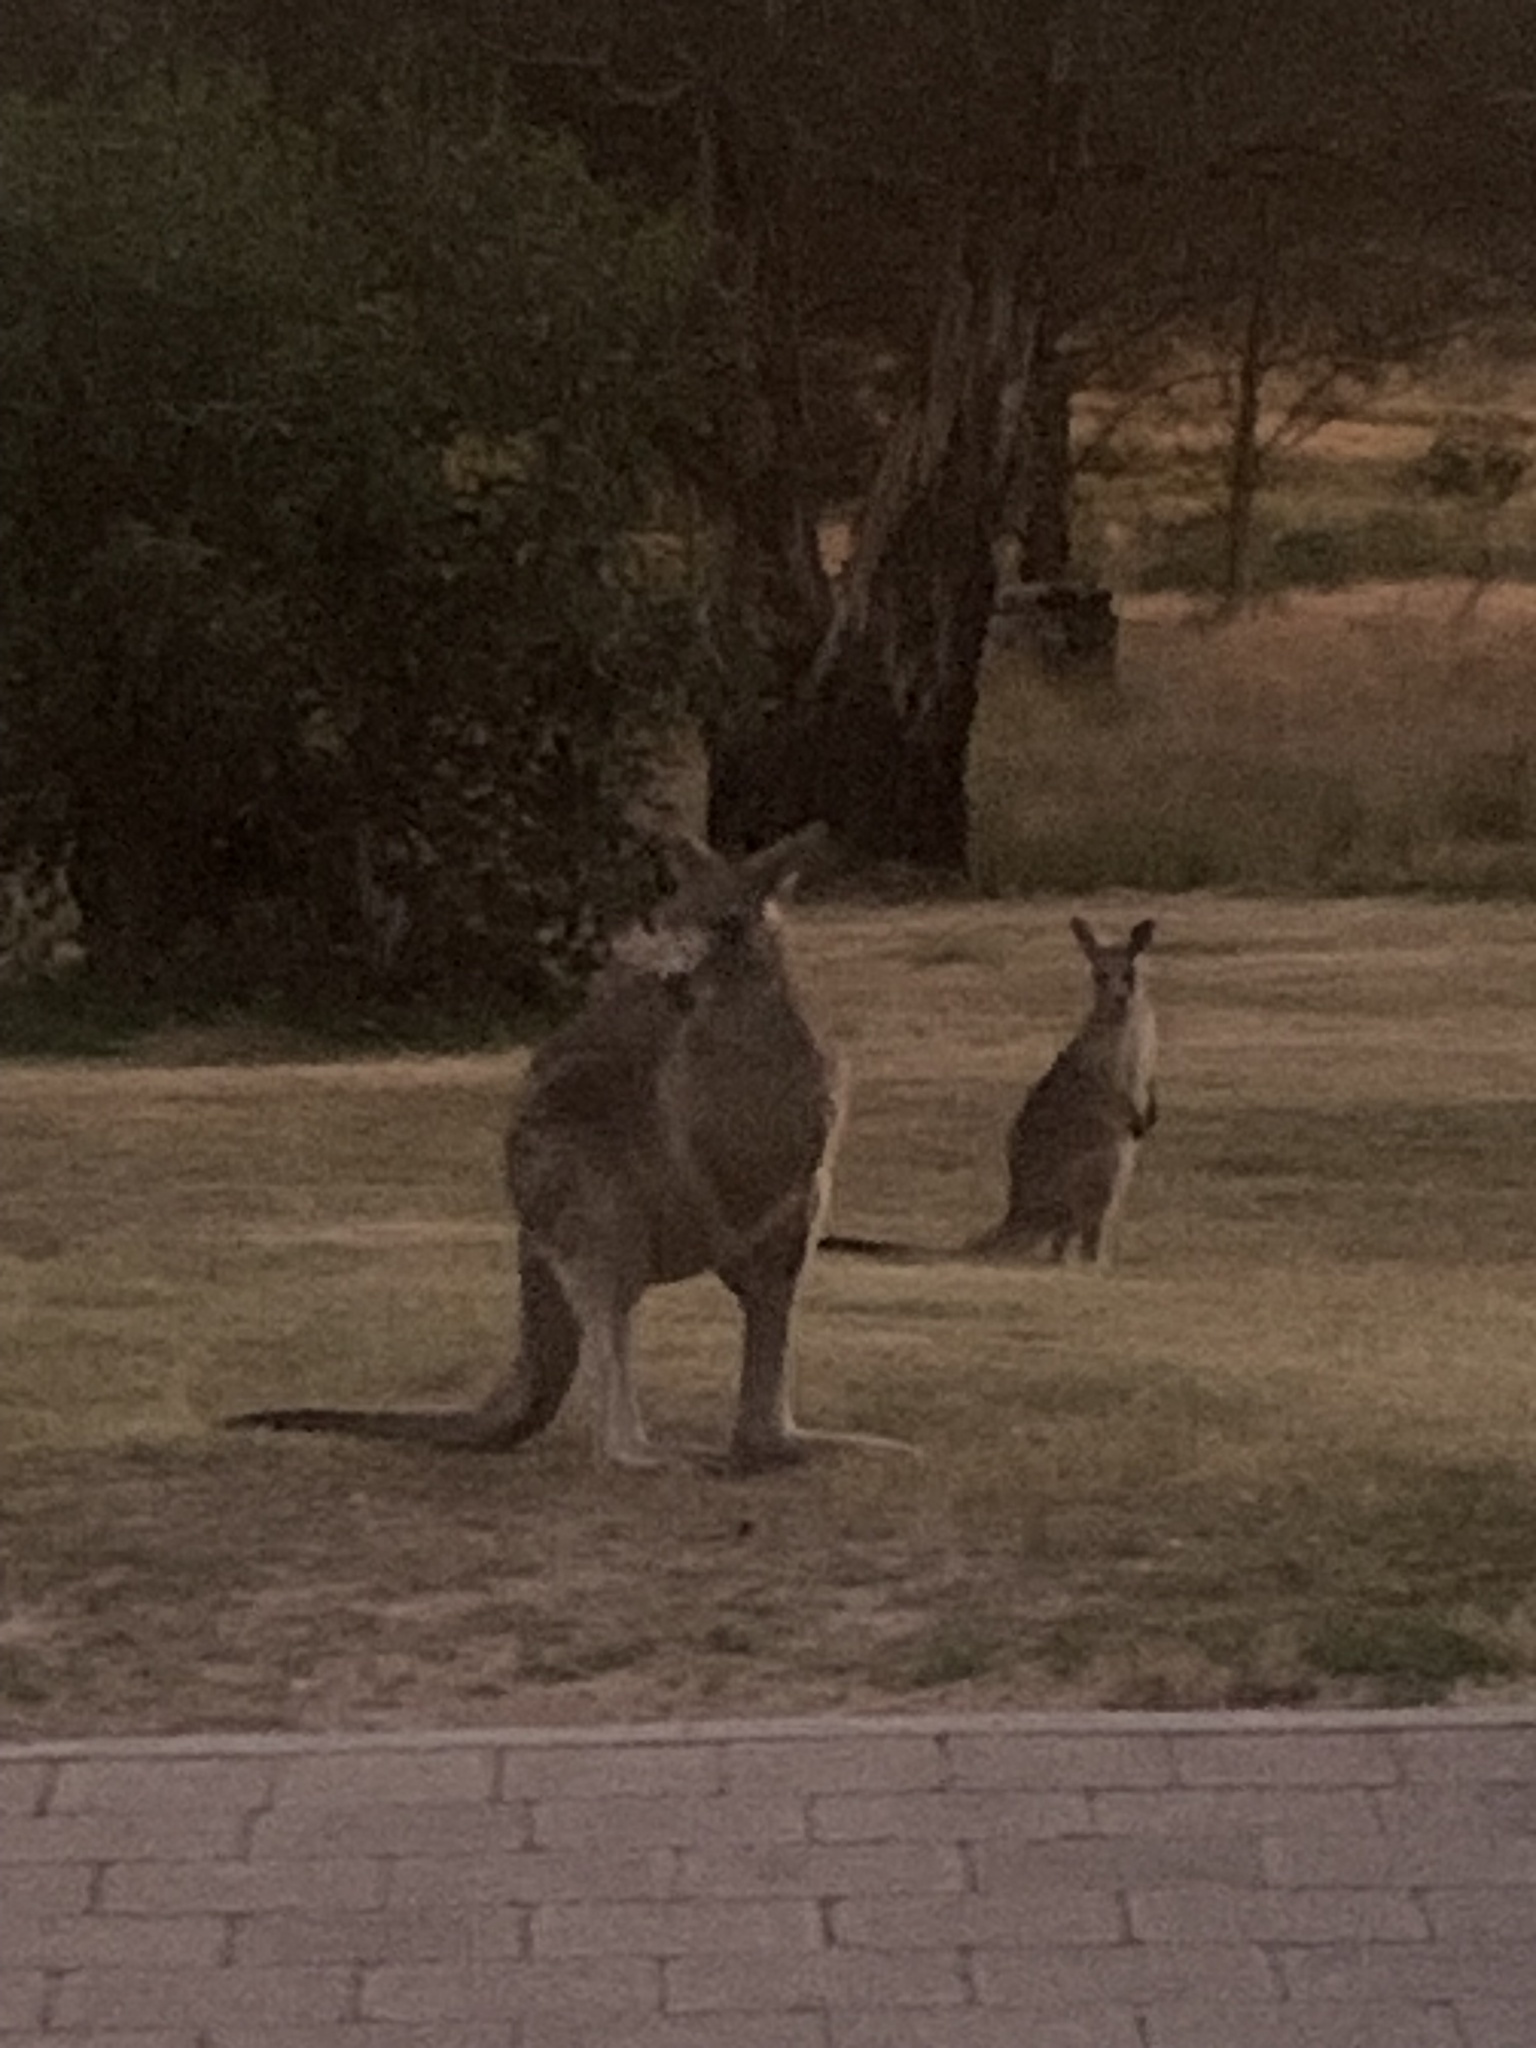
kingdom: Animalia
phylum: Chordata
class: Mammalia
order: Diprotodontia
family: Macropodidae
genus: Macropus
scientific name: Macropus giganteus
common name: Eastern grey kangaroo
